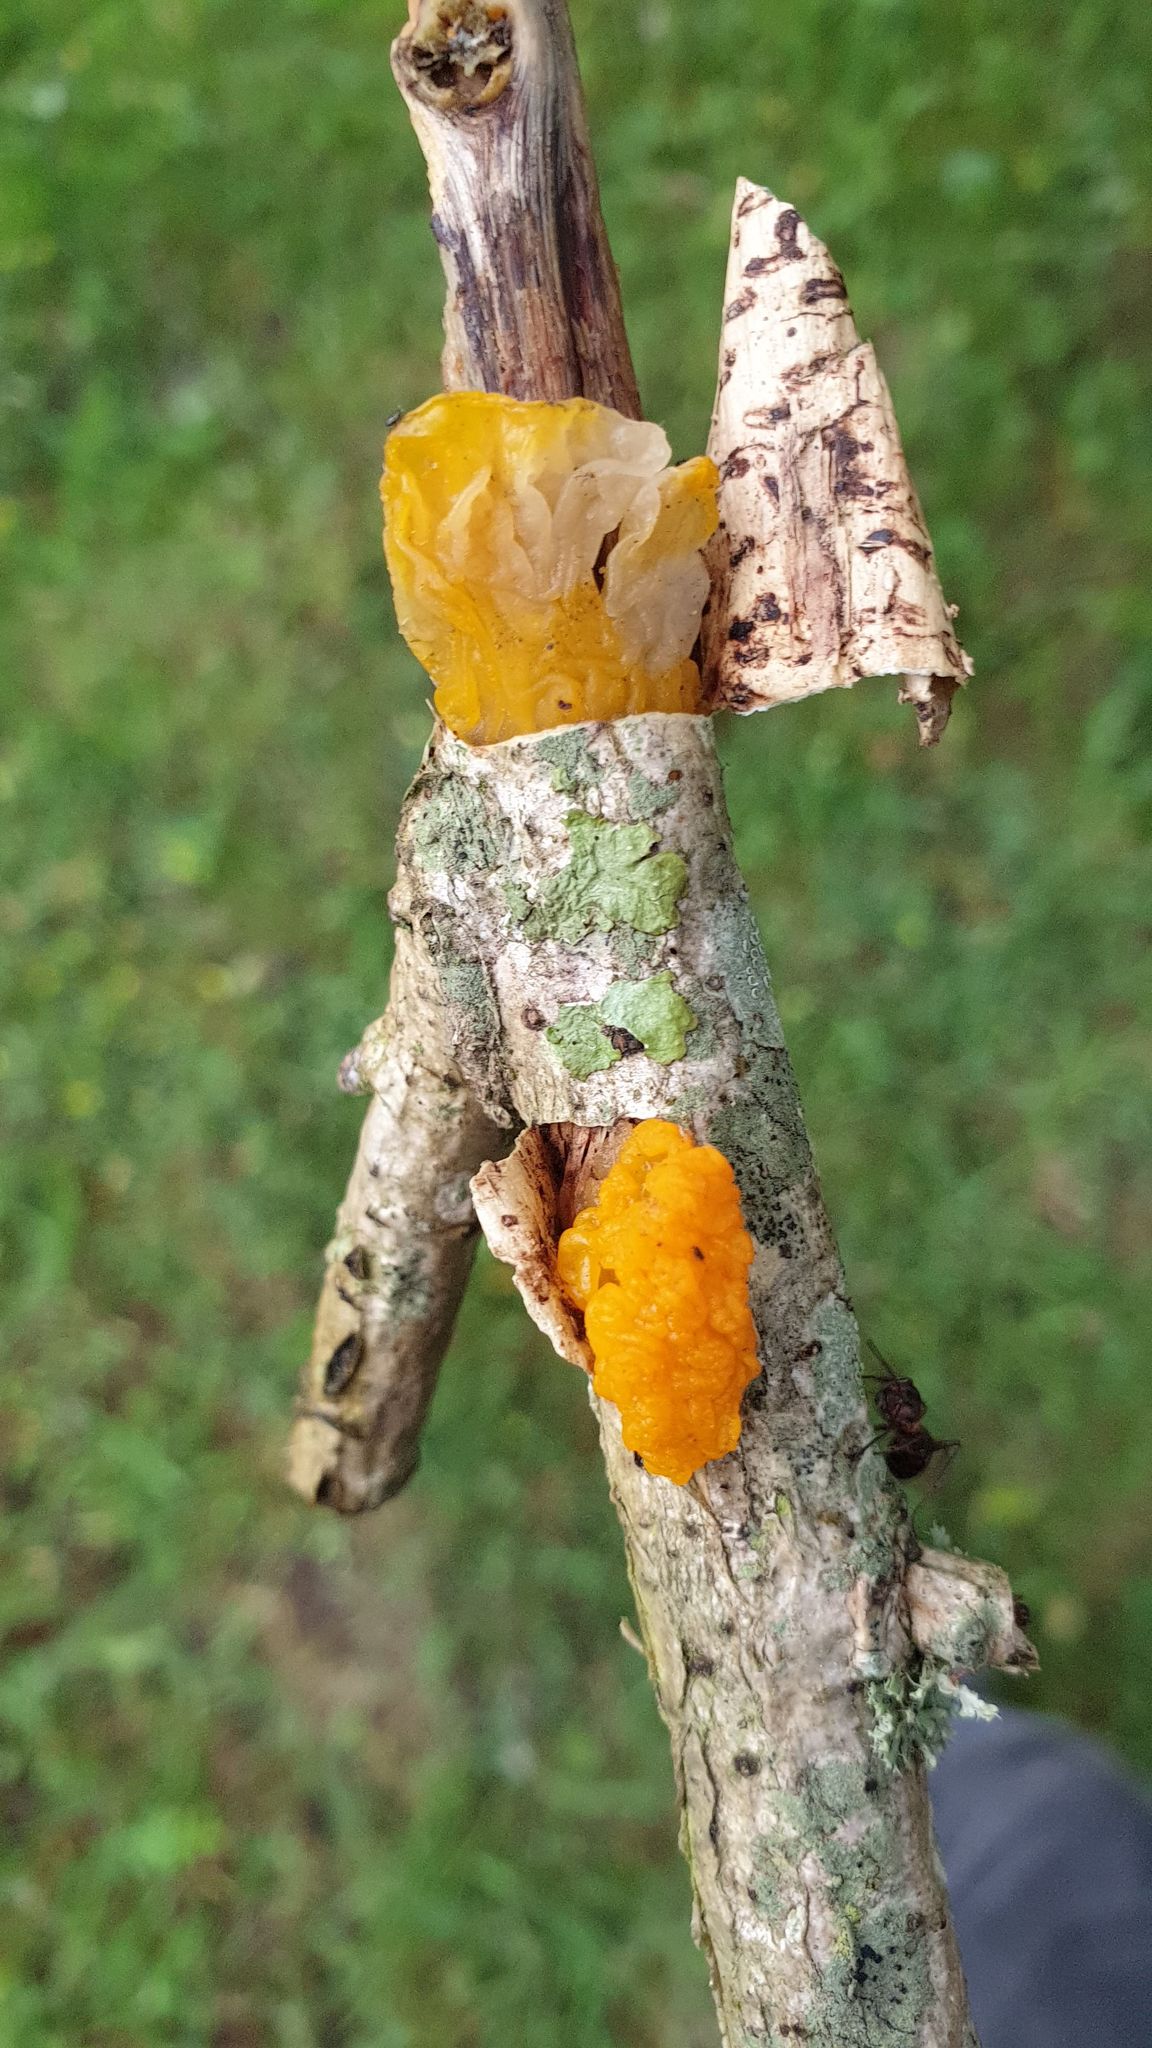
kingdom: Fungi
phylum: Basidiomycota
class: Tremellomycetes
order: Tremellales
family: Tremellaceae
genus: Tremella
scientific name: Tremella mesenterica
